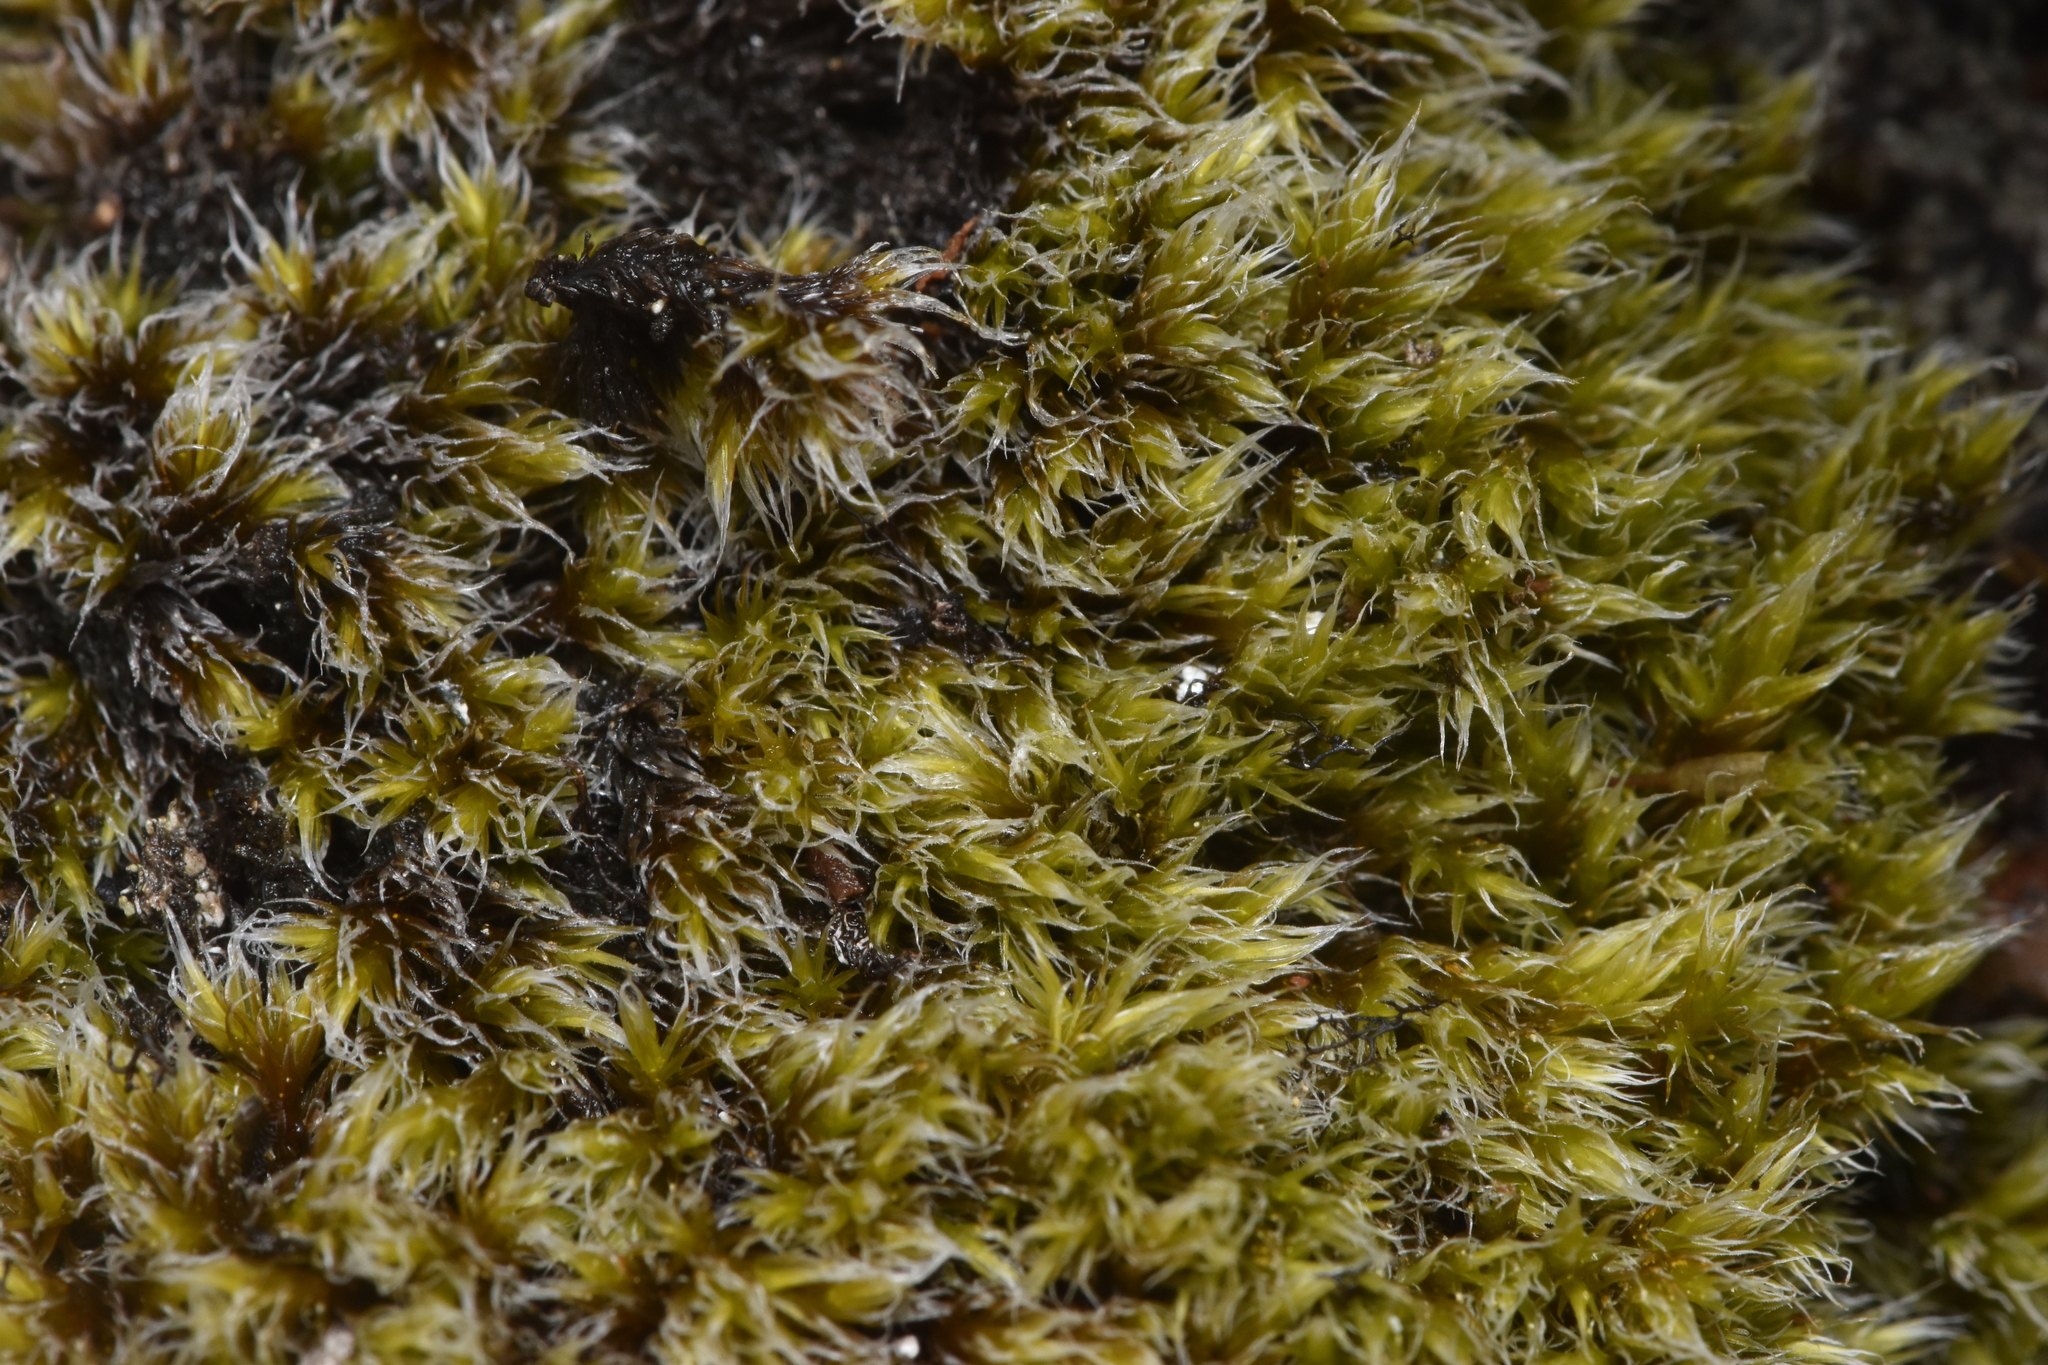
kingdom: Plantae
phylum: Bryophyta
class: Bryopsida
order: Grimmiales
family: Grimmiaceae
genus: Racomitrium
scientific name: Racomitrium lanuginosum
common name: Hoary rock moss
